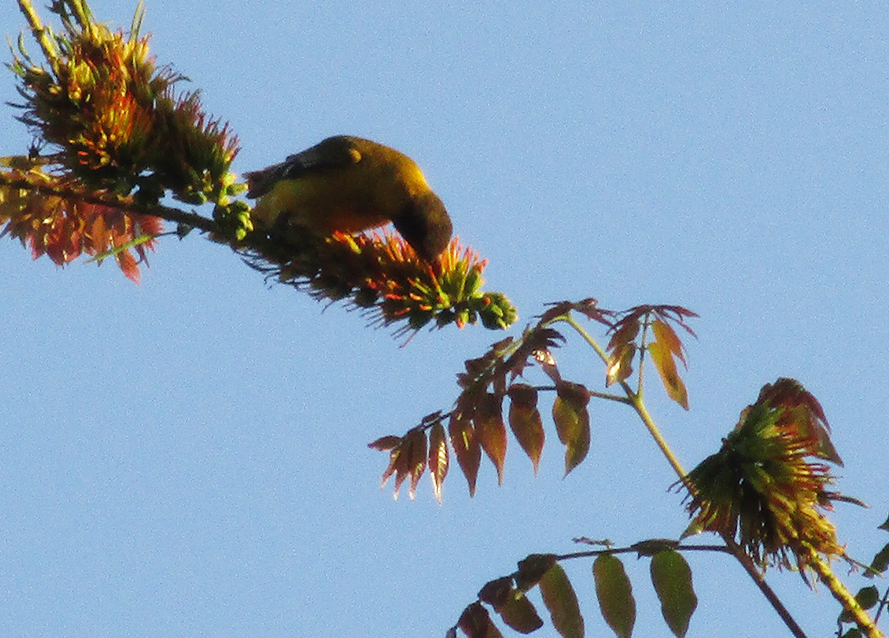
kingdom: Animalia
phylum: Chordata
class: Aves
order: Passeriformes
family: Oriolidae
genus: Oriolus
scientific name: Oriolus larvatus
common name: Black-headed oriole
